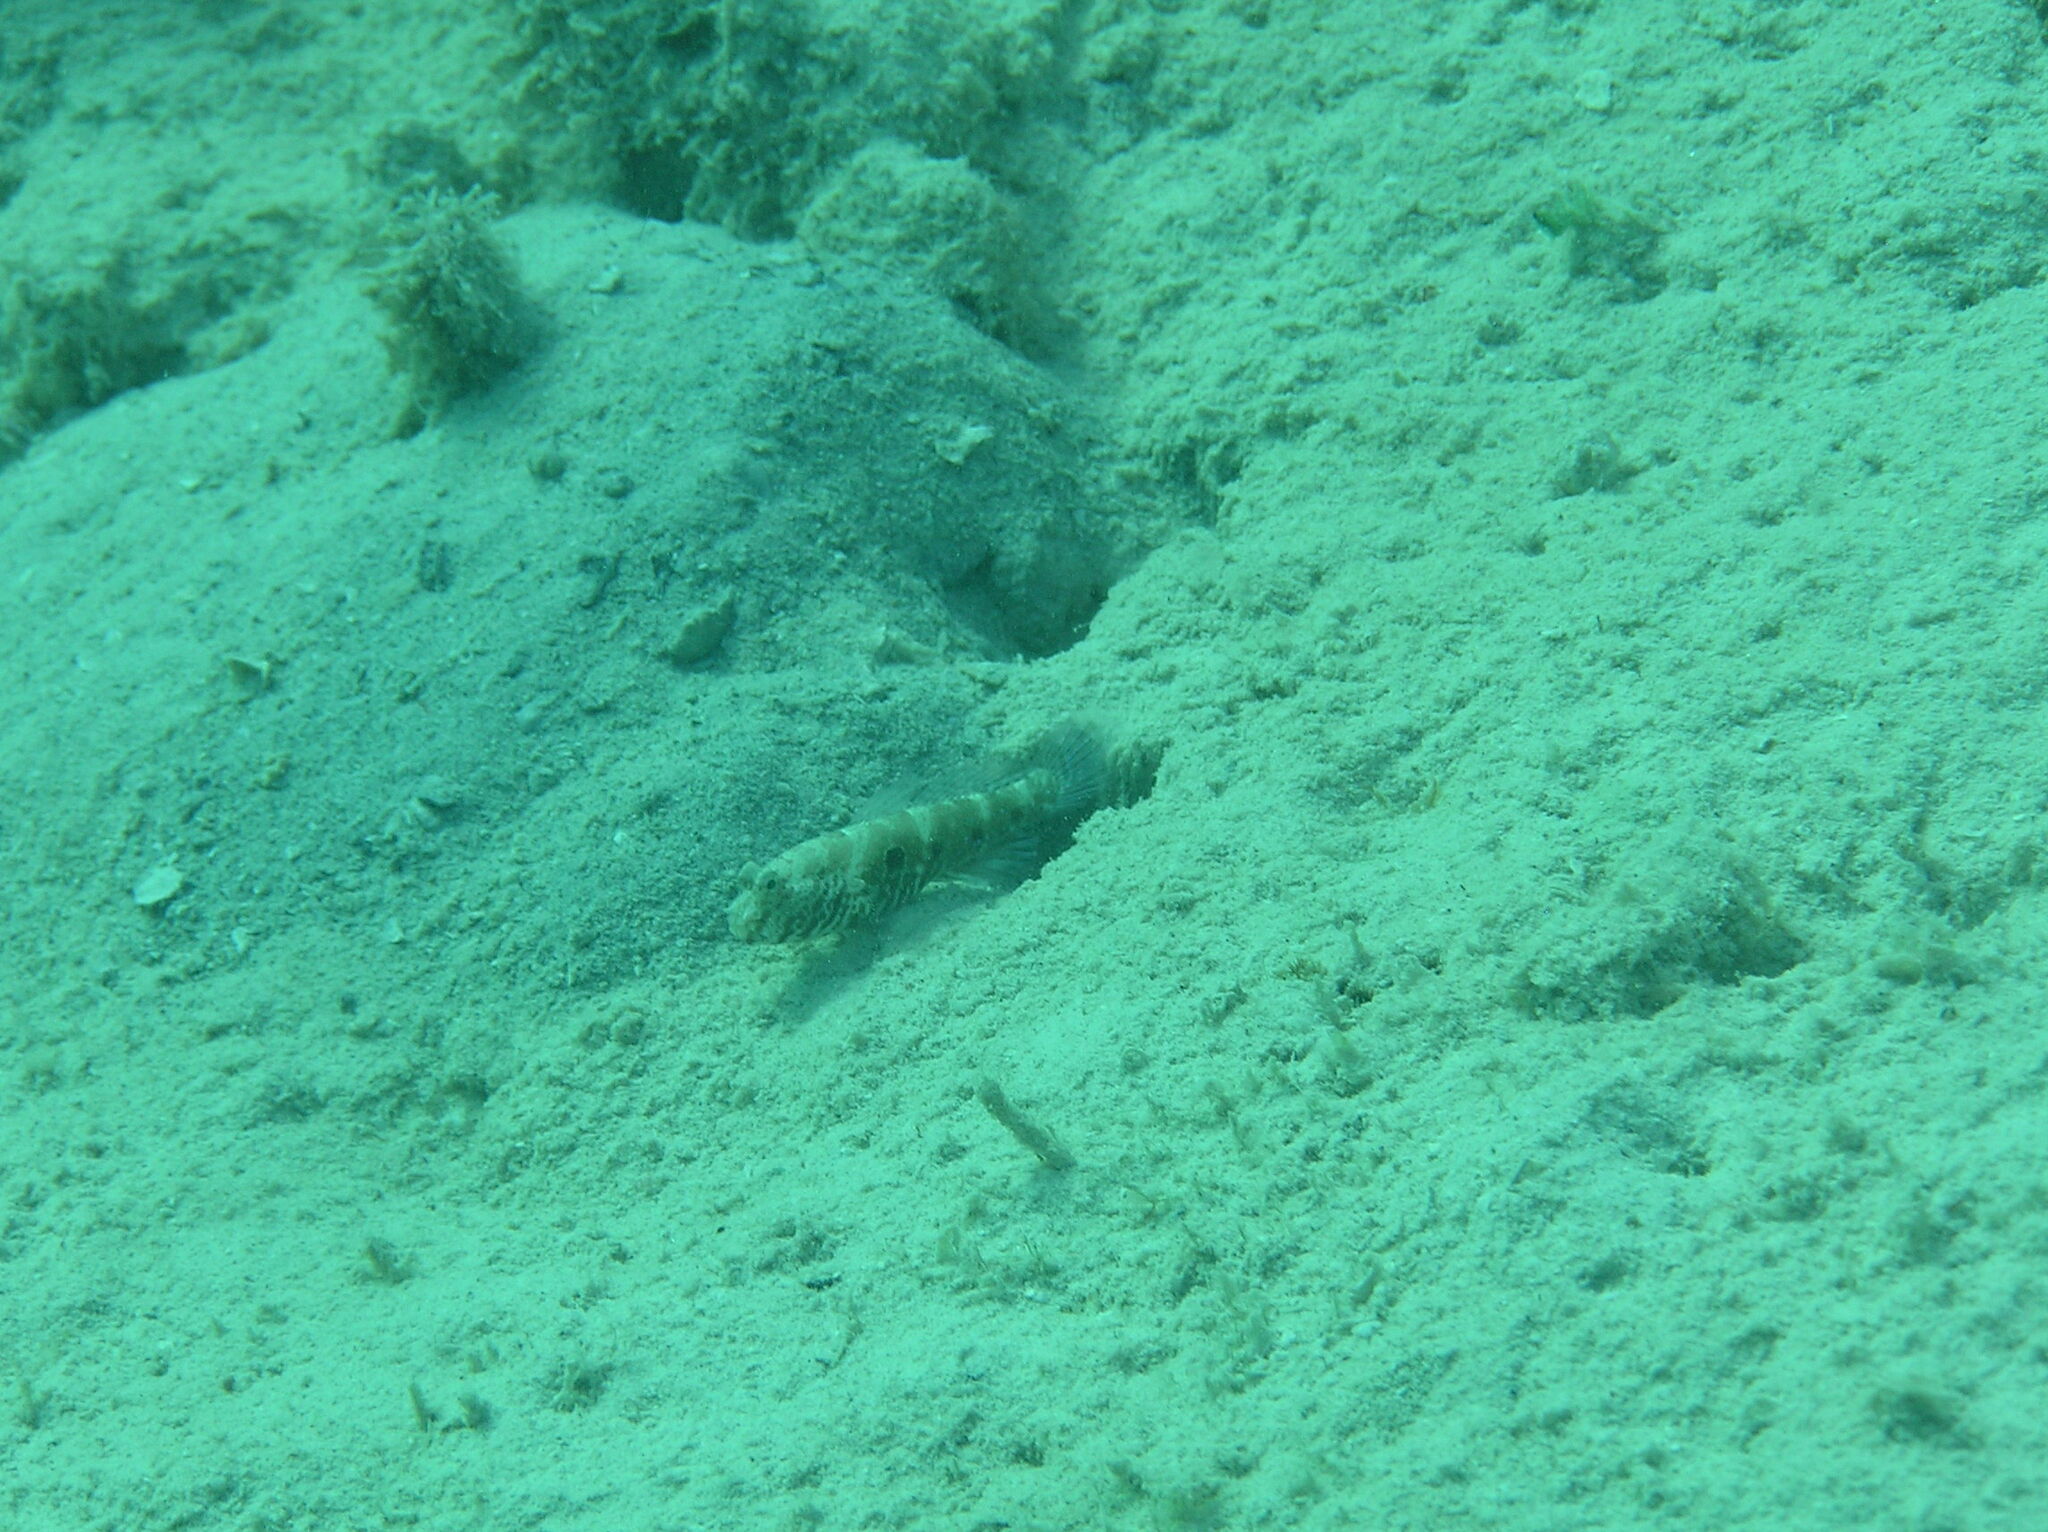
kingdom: Animalia
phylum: Chordata
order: Perciformes
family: Gobiidae
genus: Cryptocentrus
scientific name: Cryptocentrus strigilliceps
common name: Side-spot shrimp-goby
